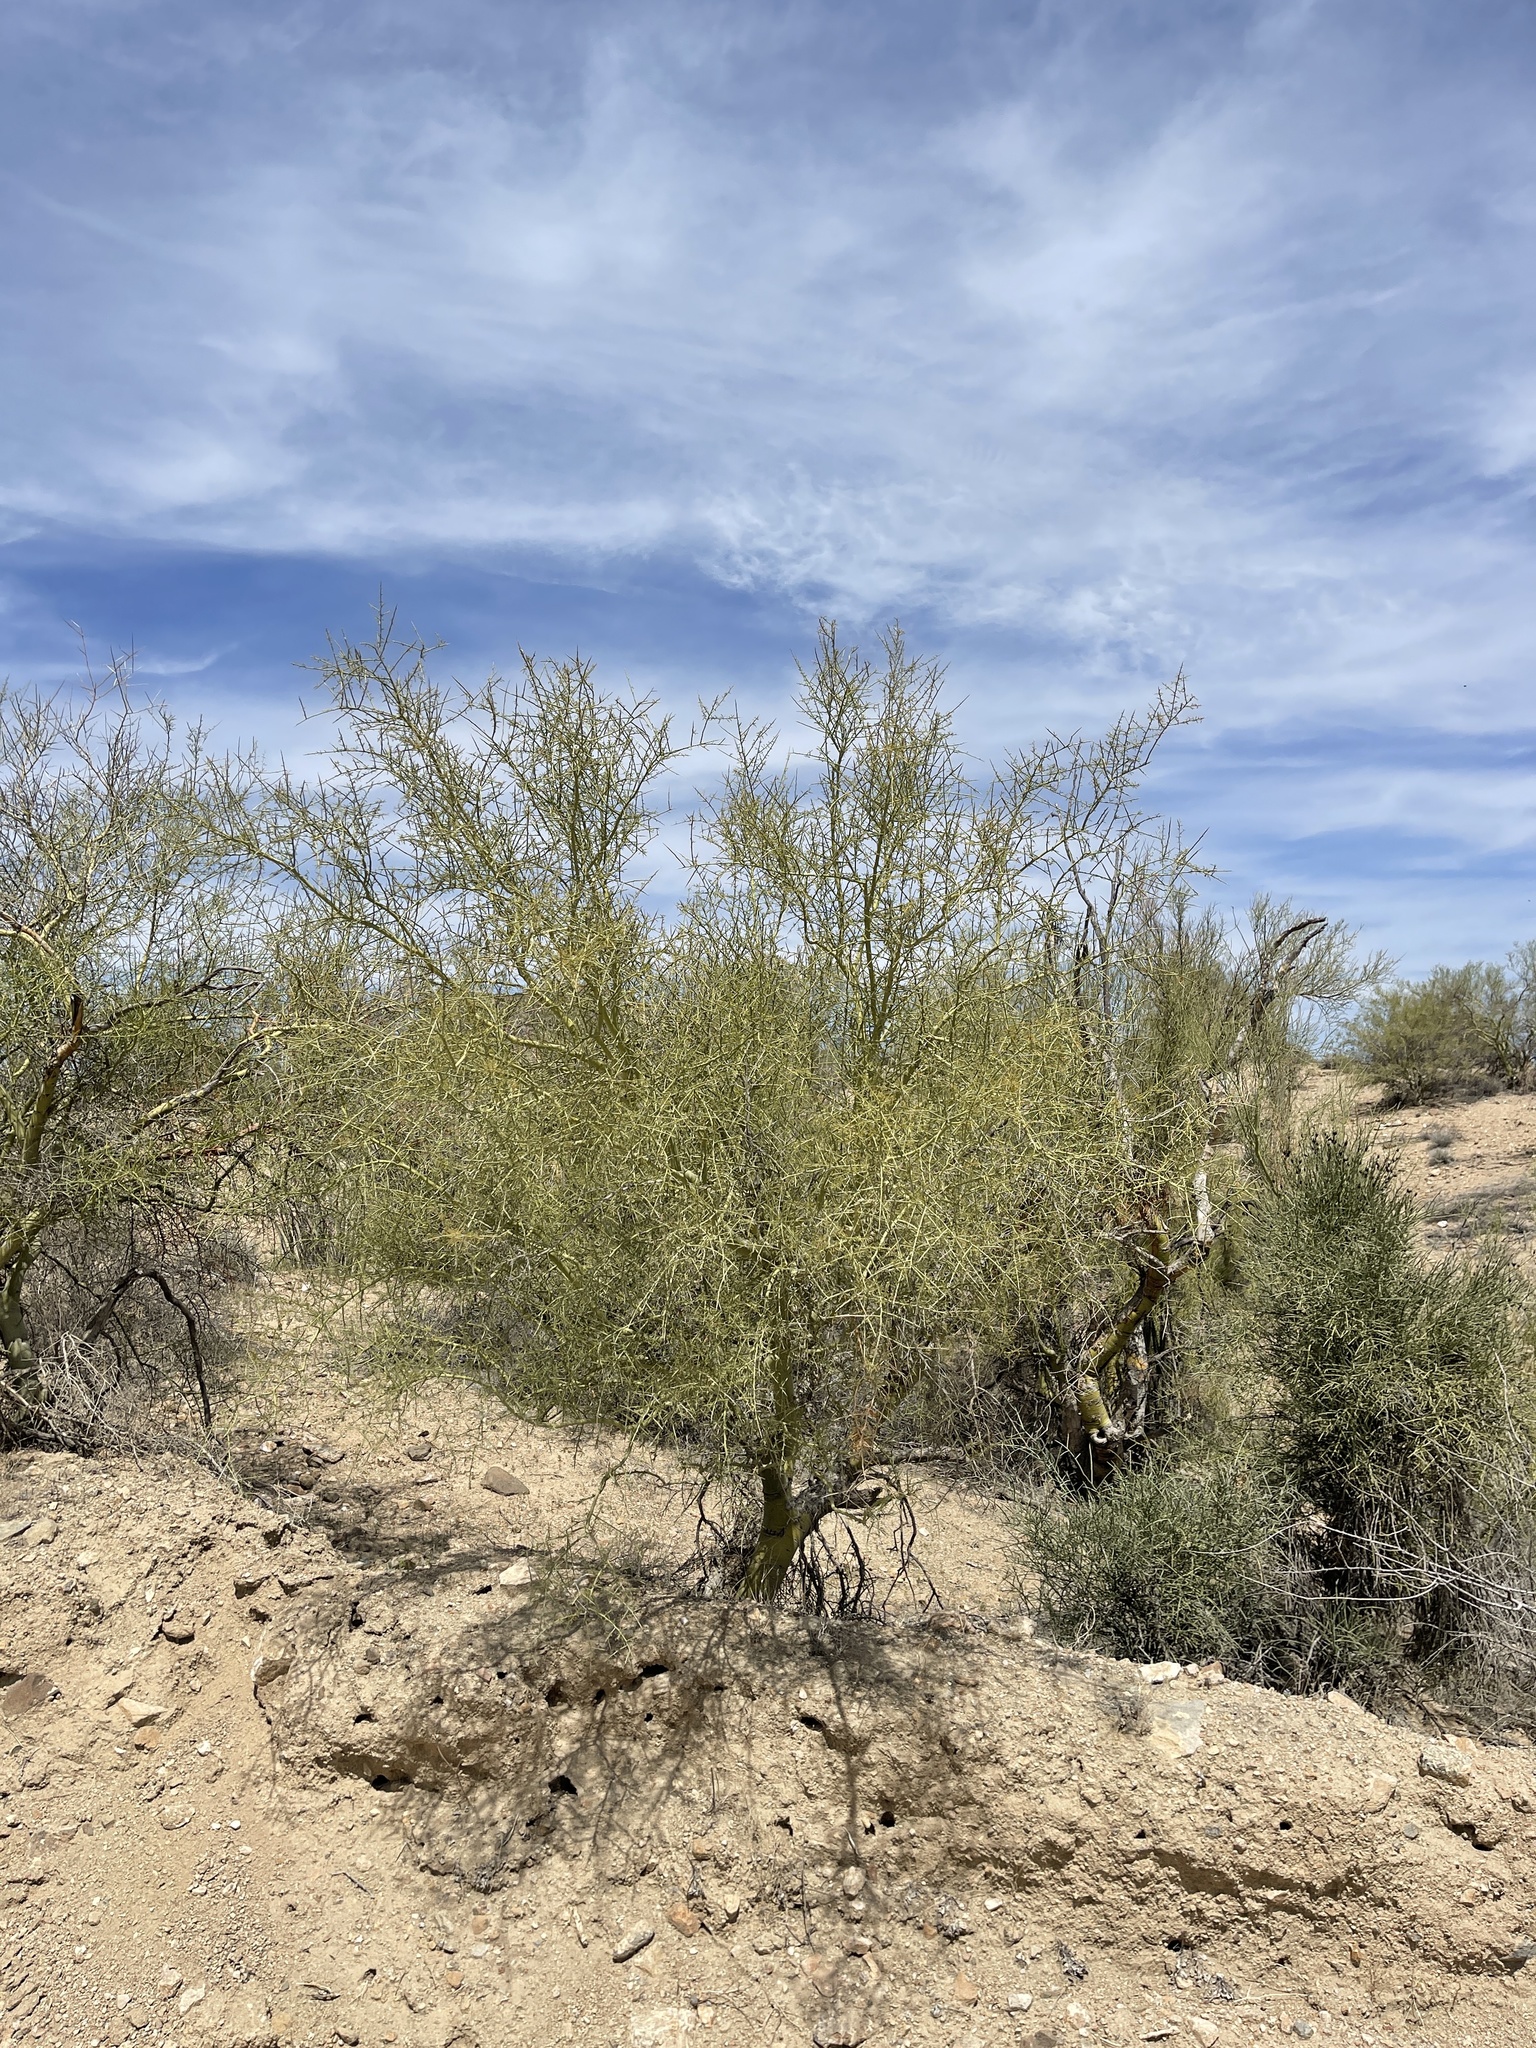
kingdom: Plantae
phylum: Tracheophyta
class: Magnoliopsida
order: Fabales
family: Fabaceae
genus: Parkinsonia
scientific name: Parkinsonia microphylla
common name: Yellow paloverde
